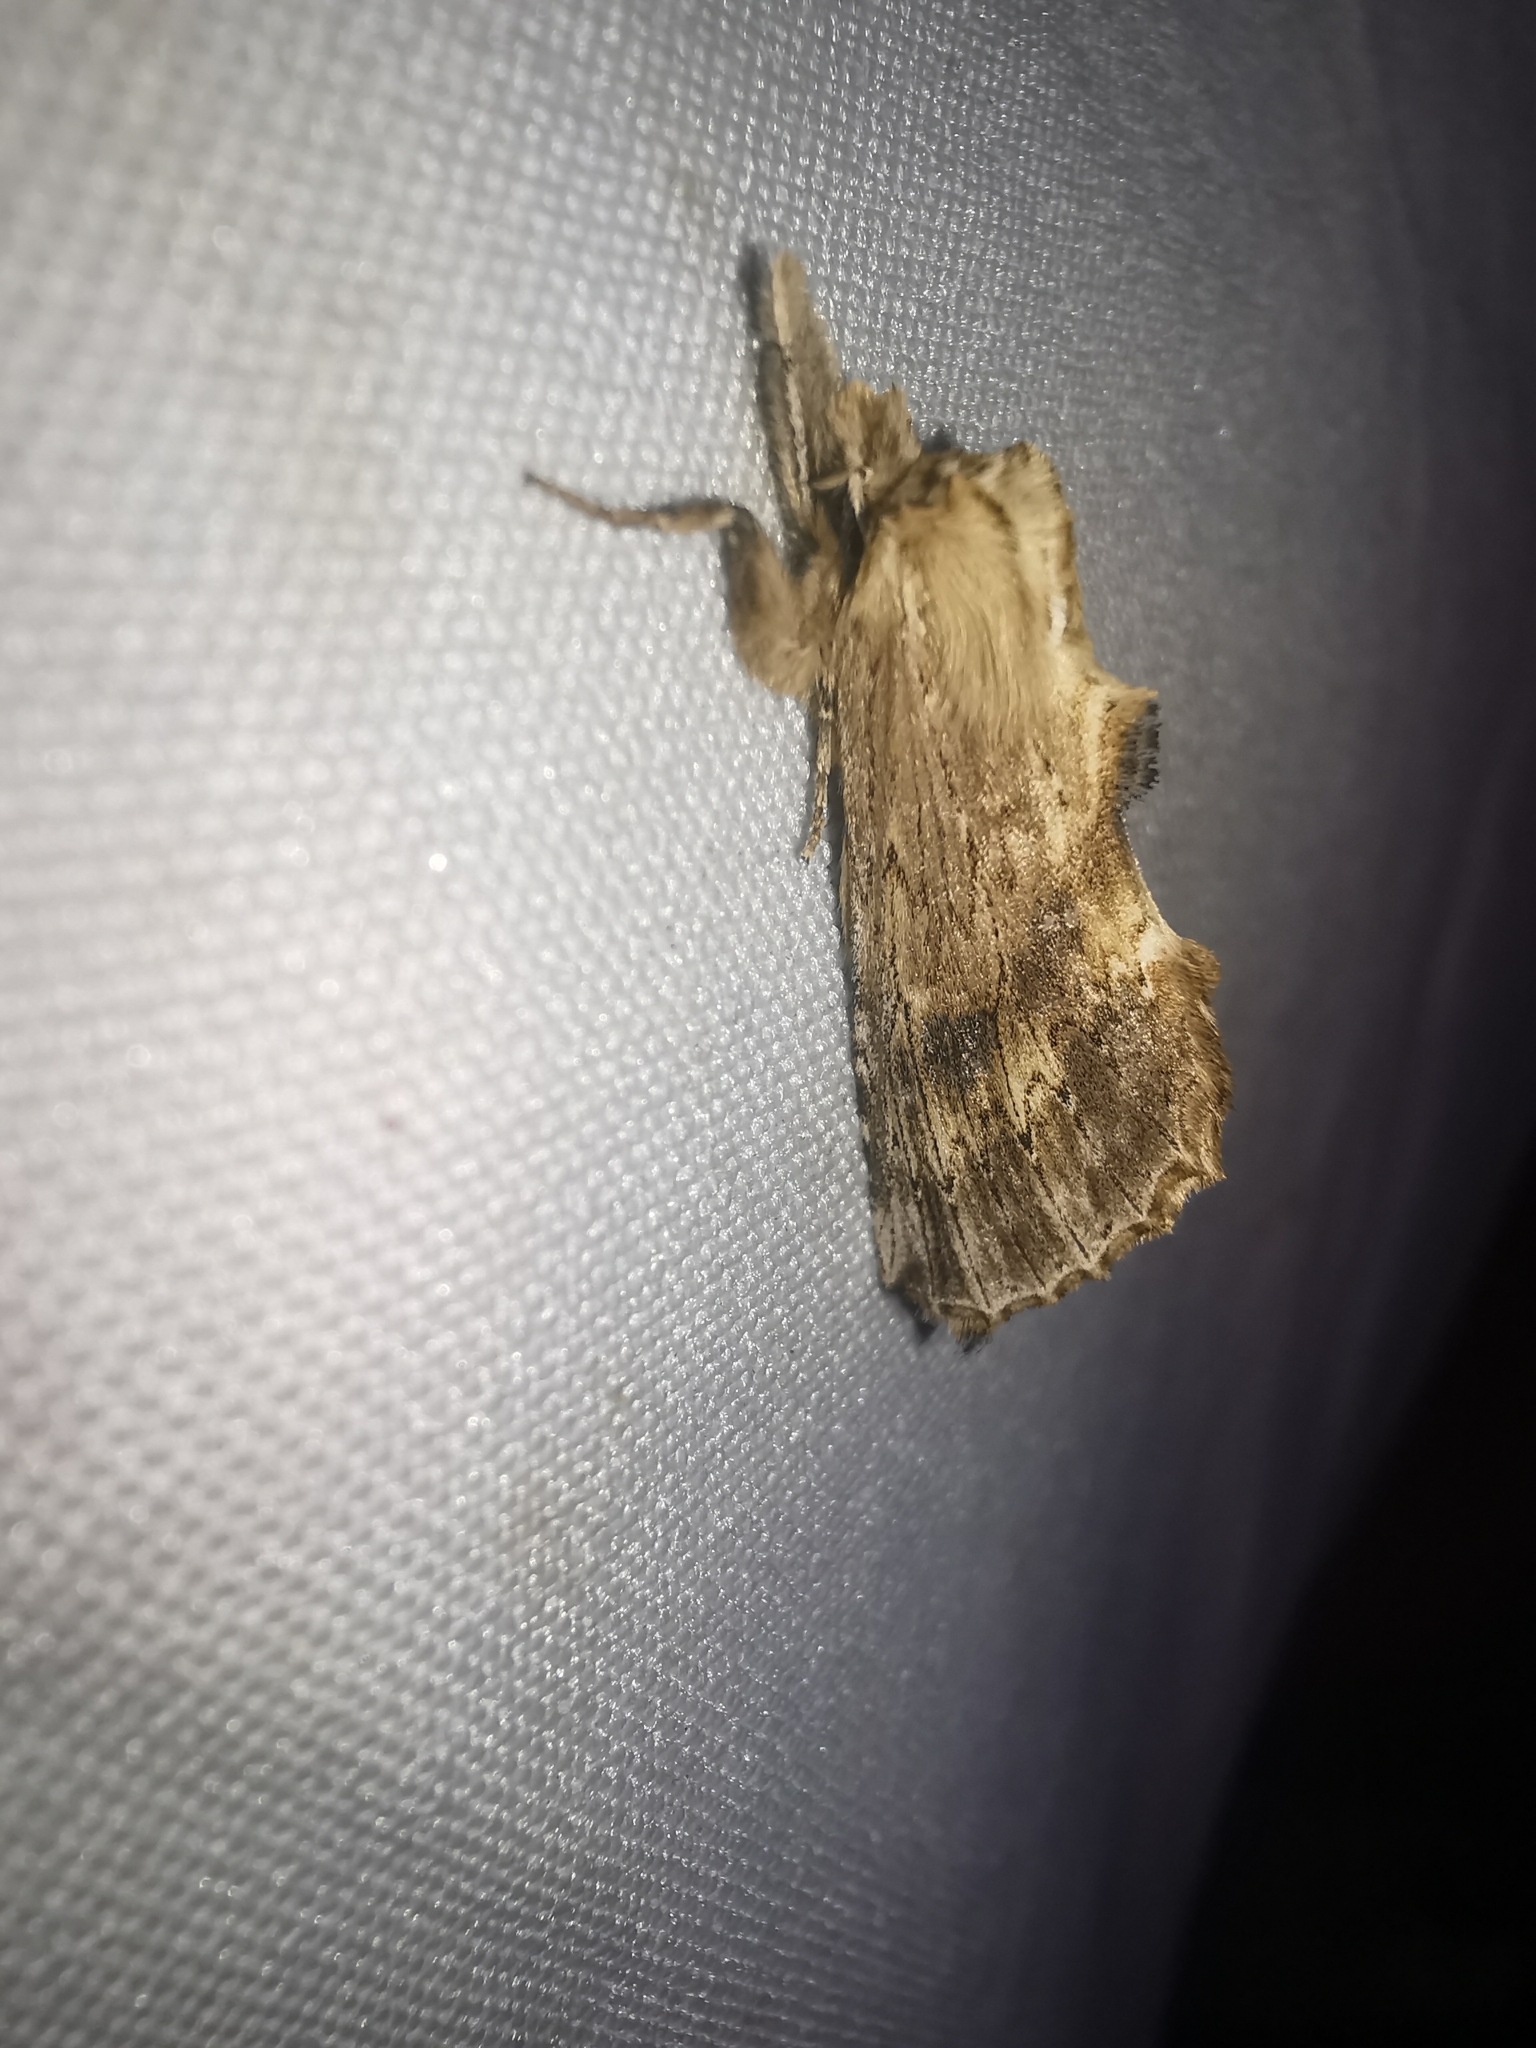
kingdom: Animalia
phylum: Arthropoda
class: Insecta
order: Lepidoptera
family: Notodontidae
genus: Pterostoma
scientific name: Pterostoma palpina
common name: Pale prominent
